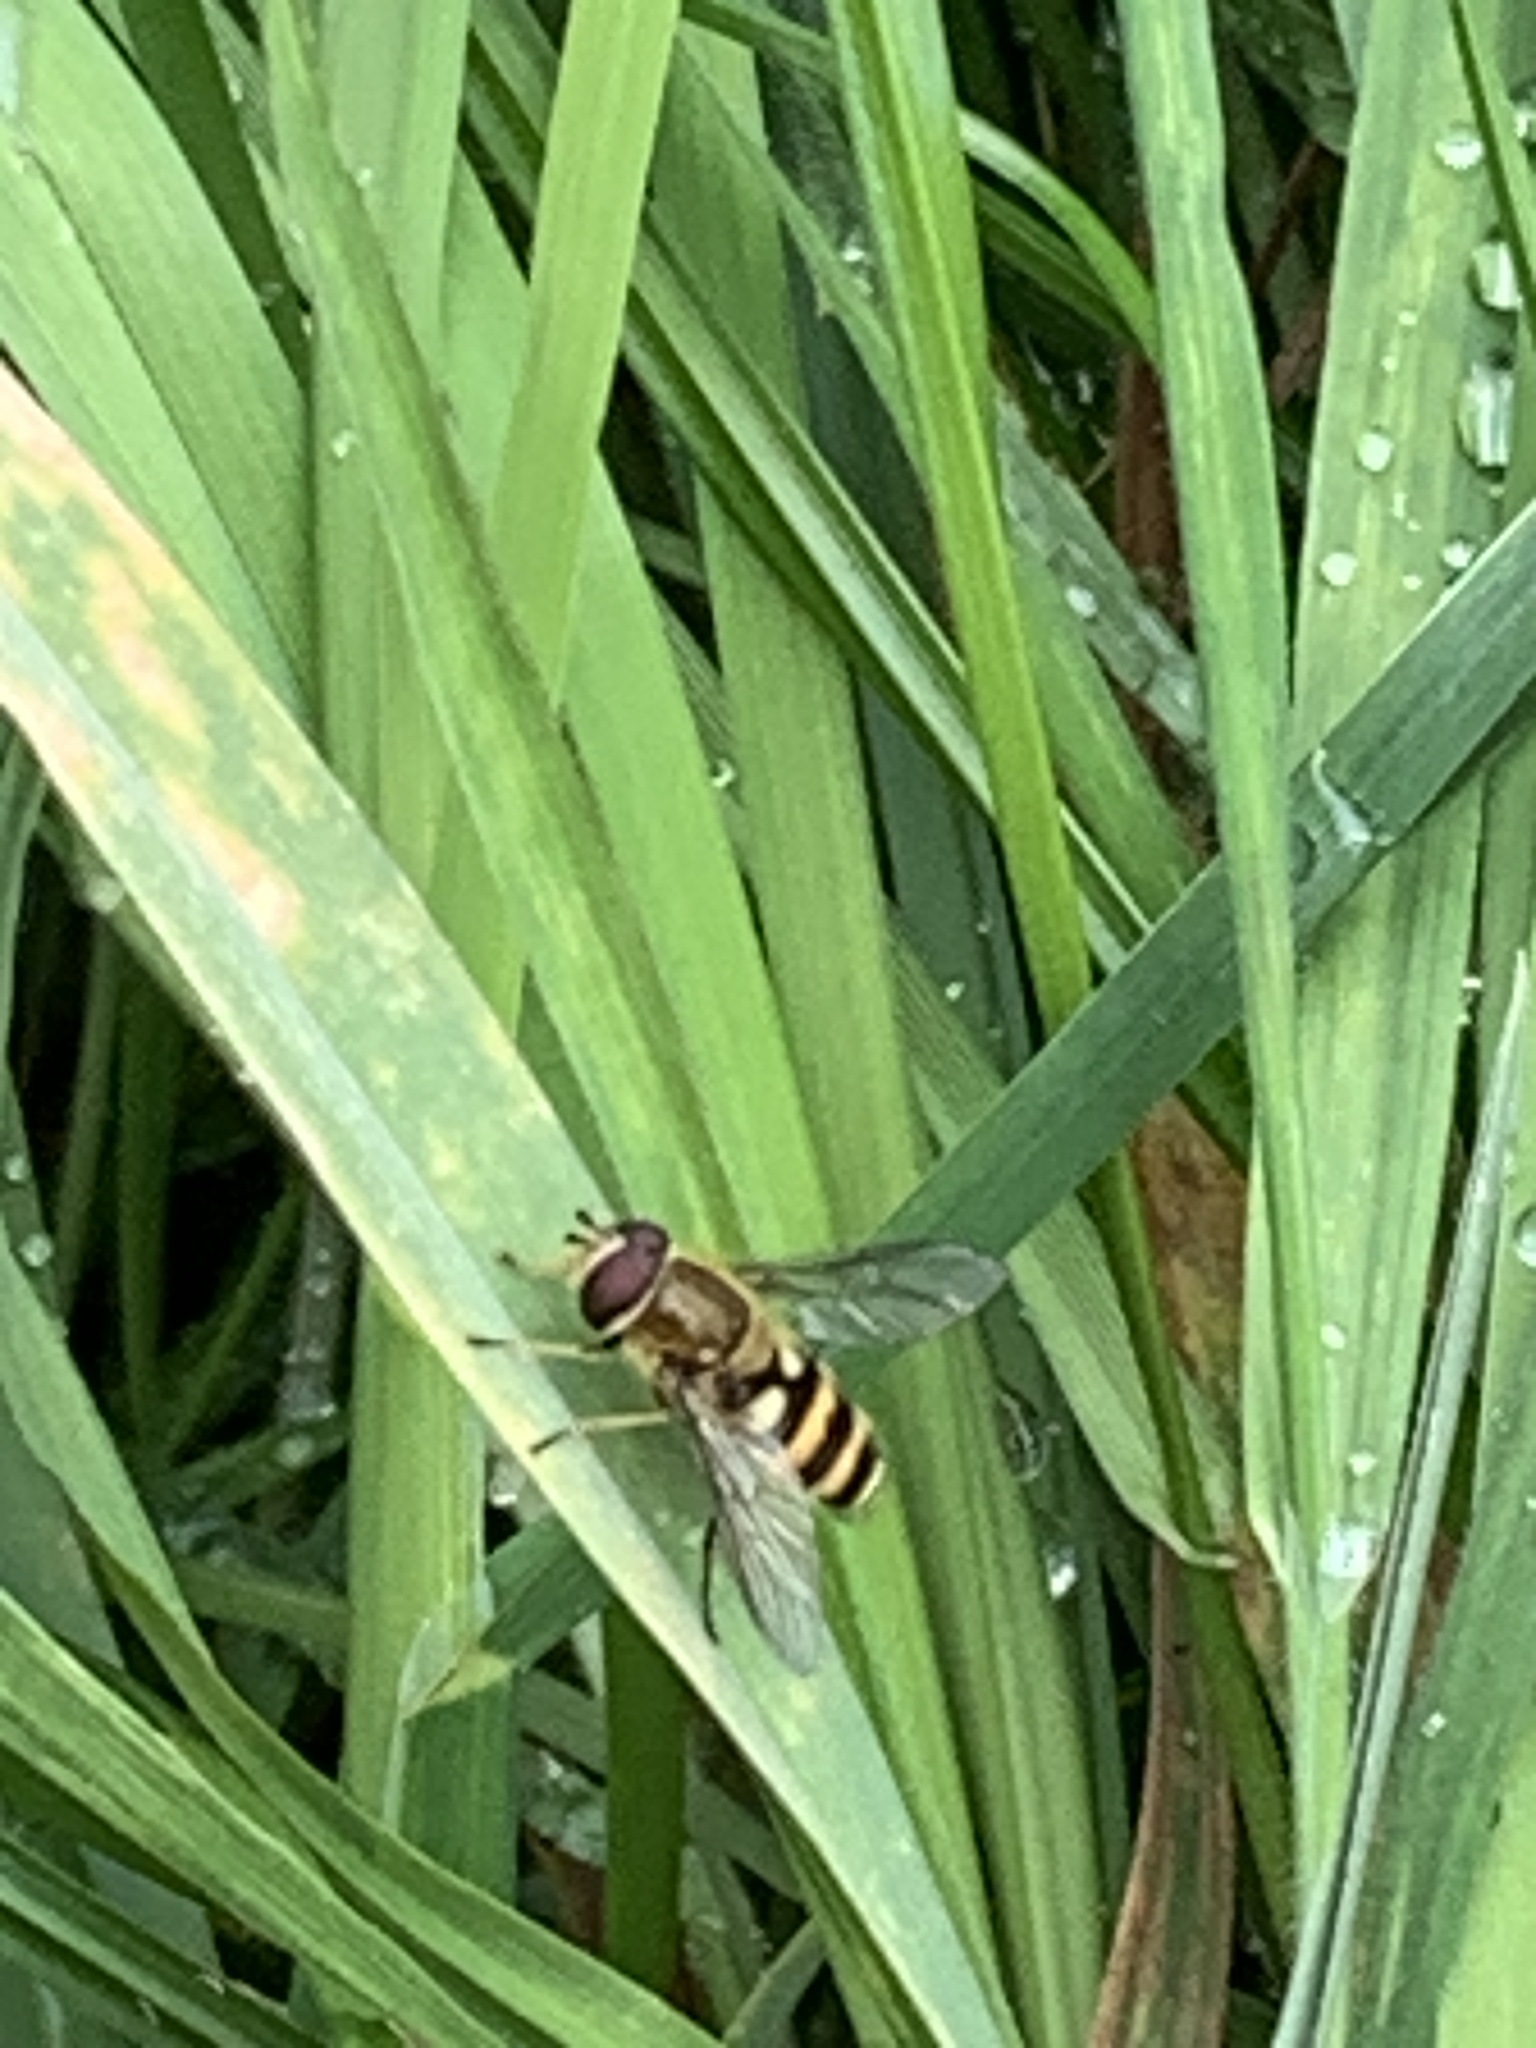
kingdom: Animalia
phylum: Arthropoda
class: Insecta
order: Diptera
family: Syrphidae
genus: Syrphus
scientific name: Syrphus ribesii
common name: Common flower fly
